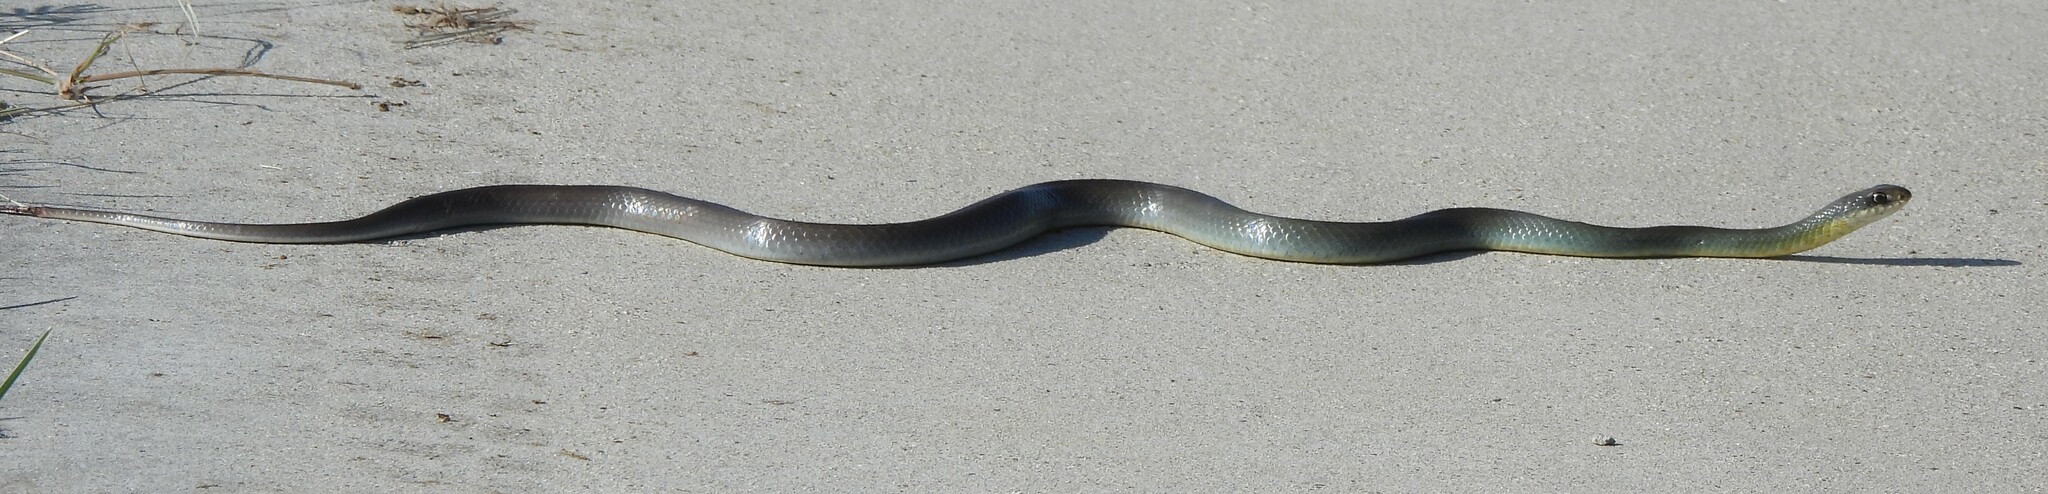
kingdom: Animalia
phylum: Chordata
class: Squamata
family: Colubridae
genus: Coluber
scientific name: Coluber constrictor
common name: Eastern racer
